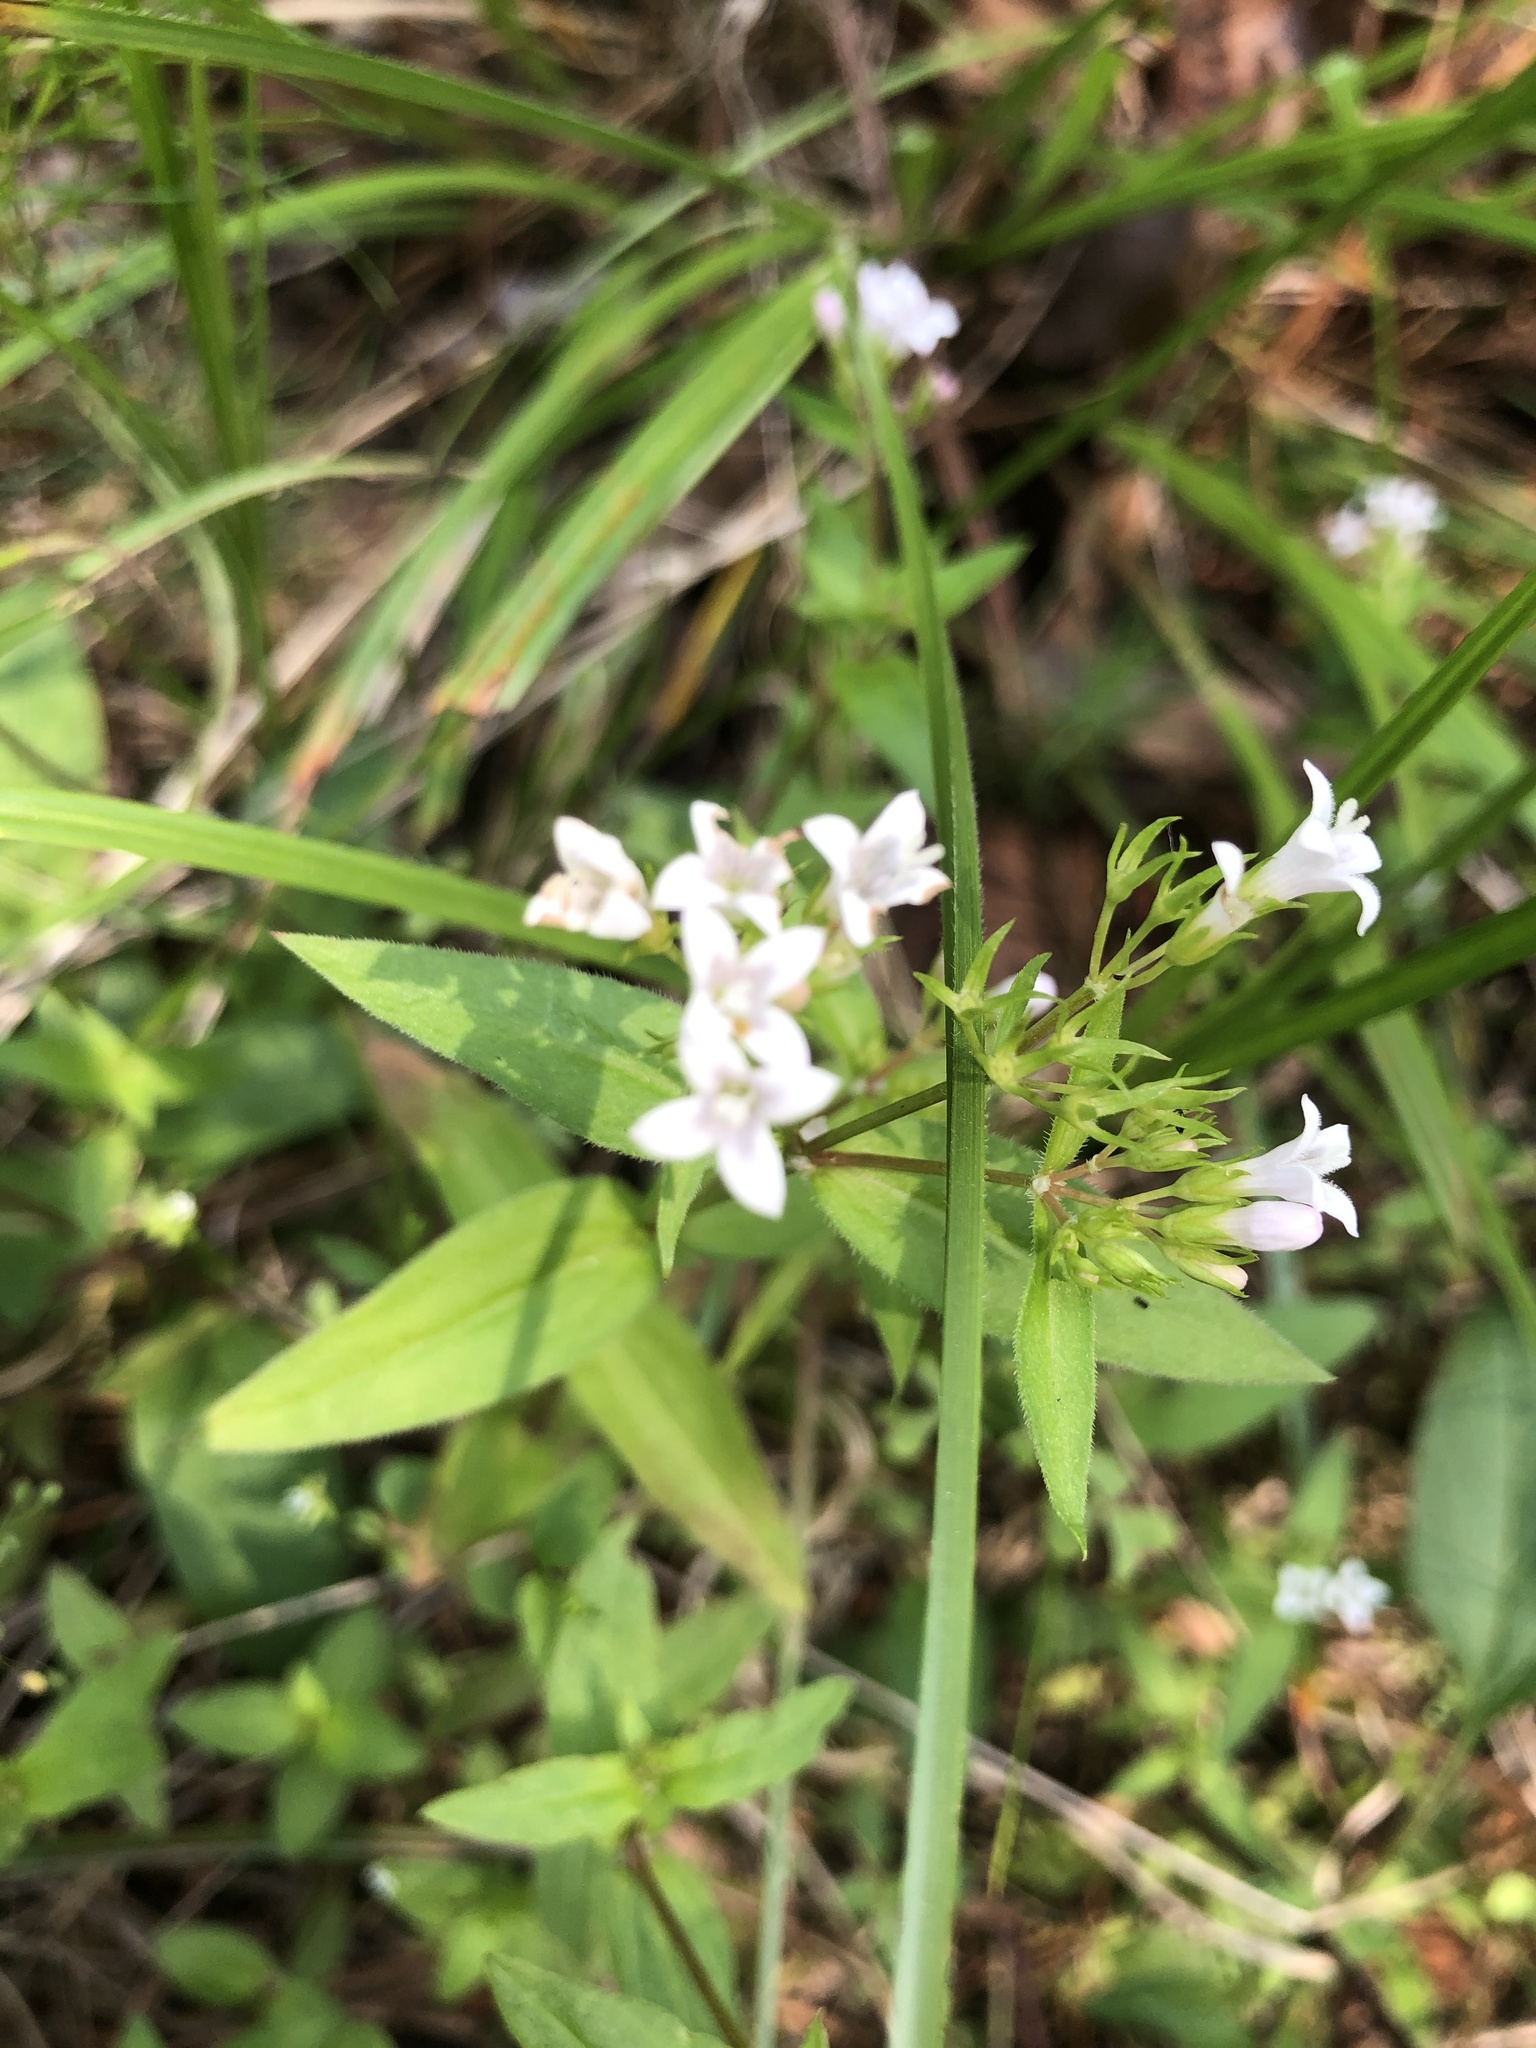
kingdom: Plantae
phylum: Tracheophyta
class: Magnoliopsida
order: Gentianales
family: Rubiaceae
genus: Houstonia
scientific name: Houstonia purpurea
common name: Summer bluet
